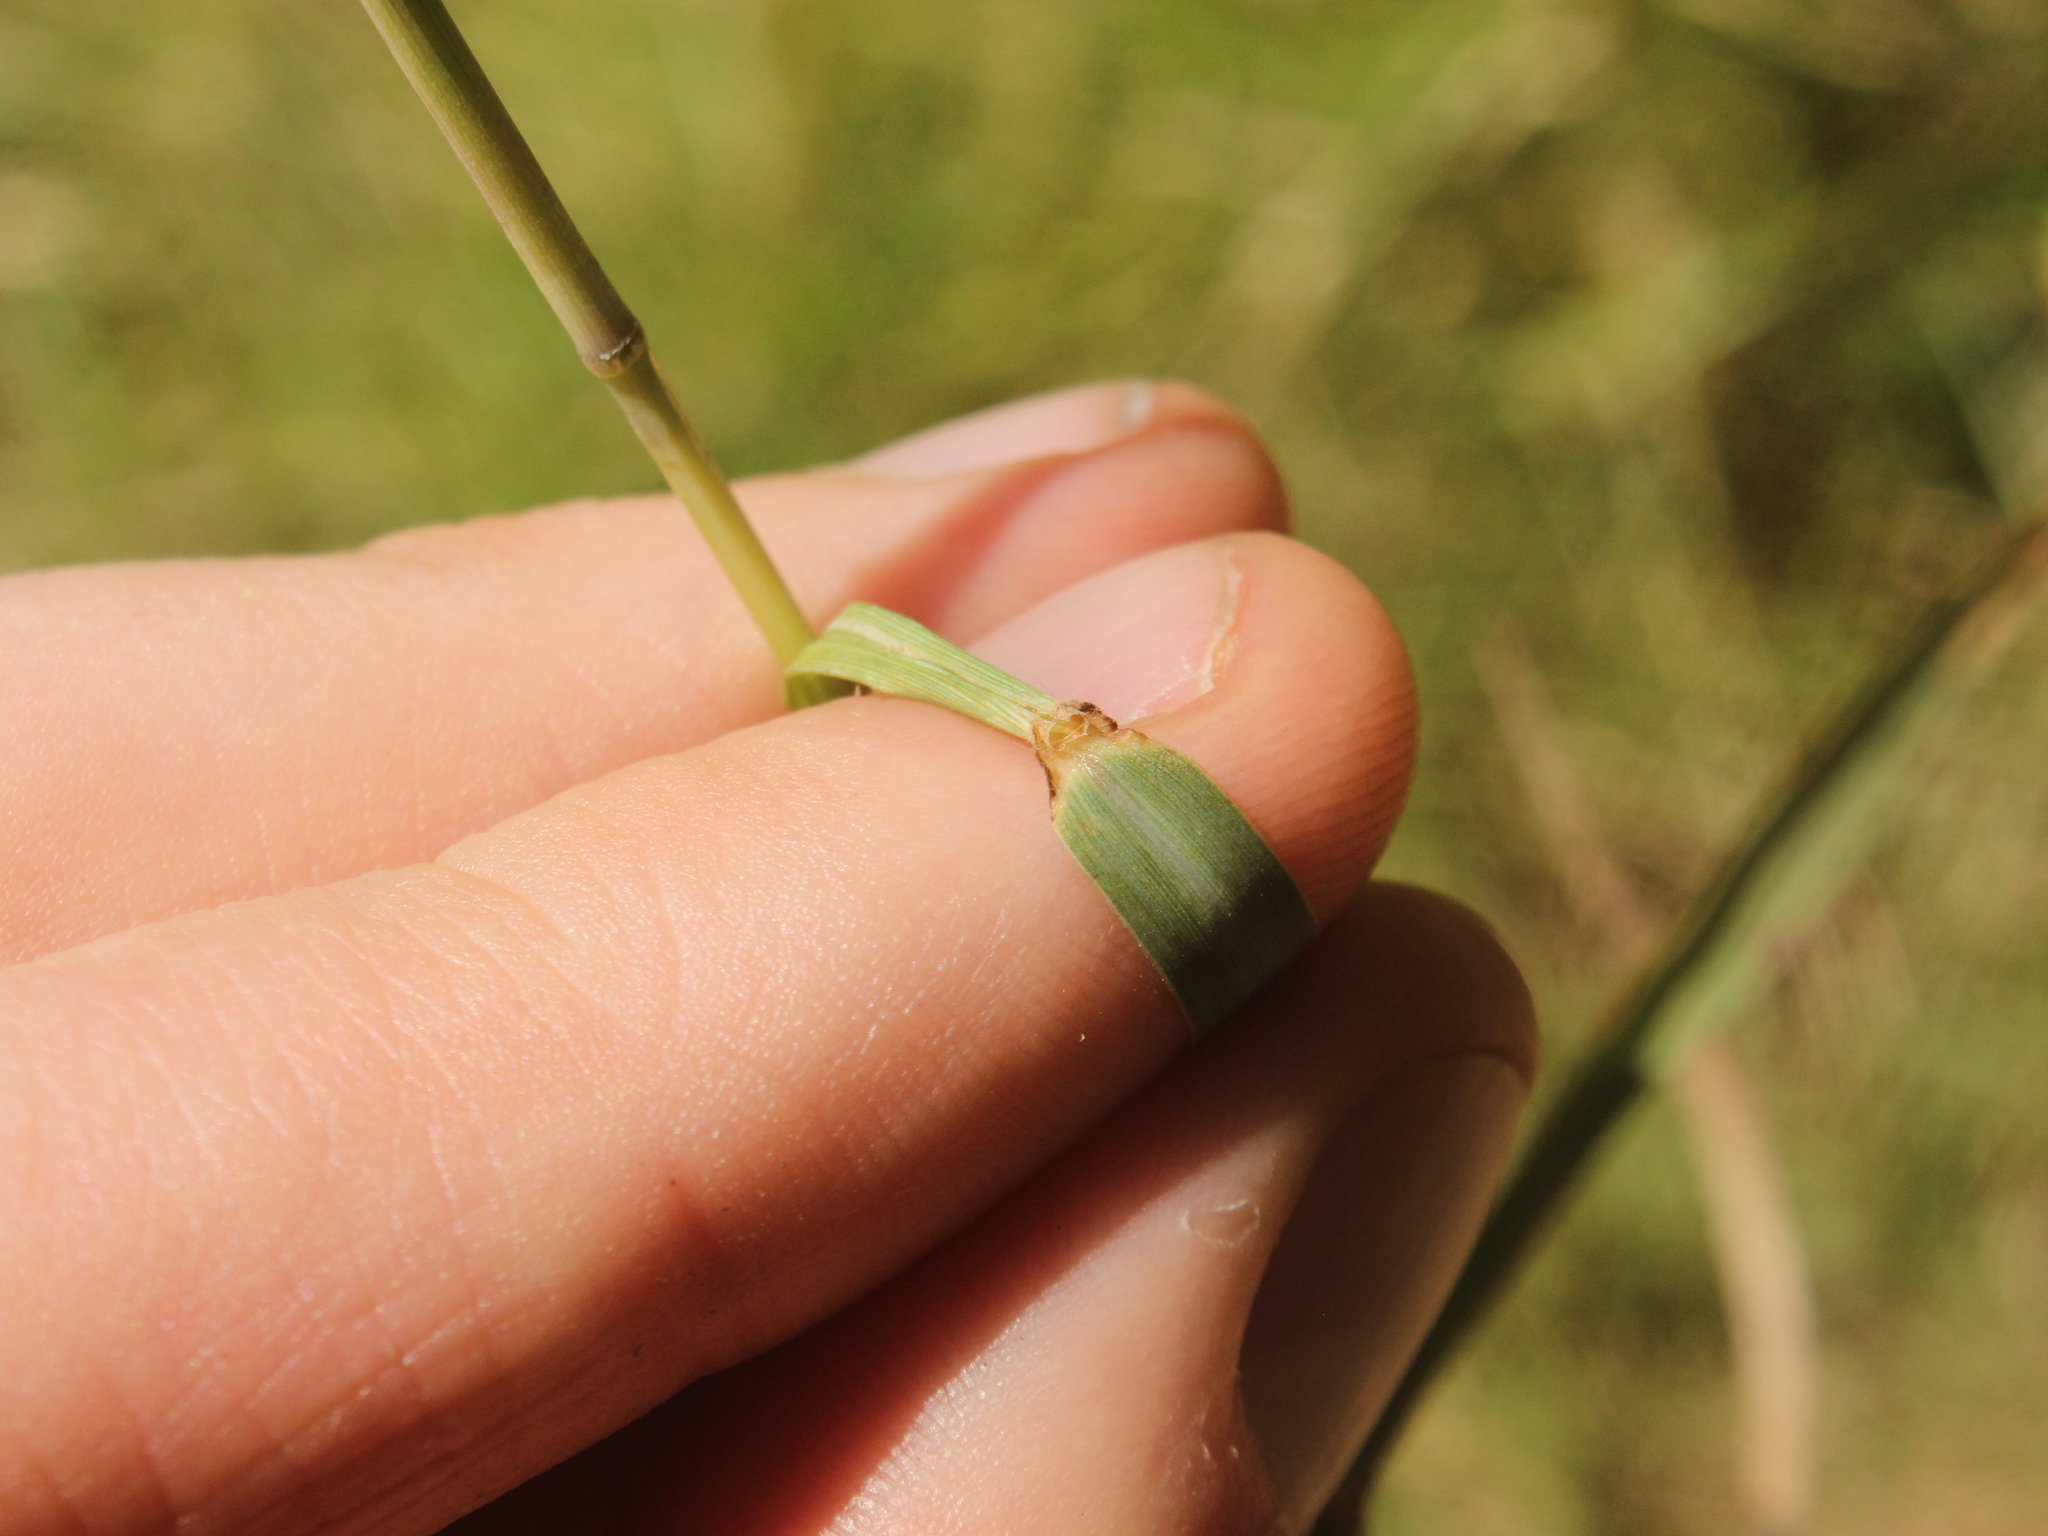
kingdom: Plantae
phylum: Tracheophyta
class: Liliopsida
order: Poales
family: Poaceae
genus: Bothriochloa
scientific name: Bothriochloa macra
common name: Pitted beard grass
